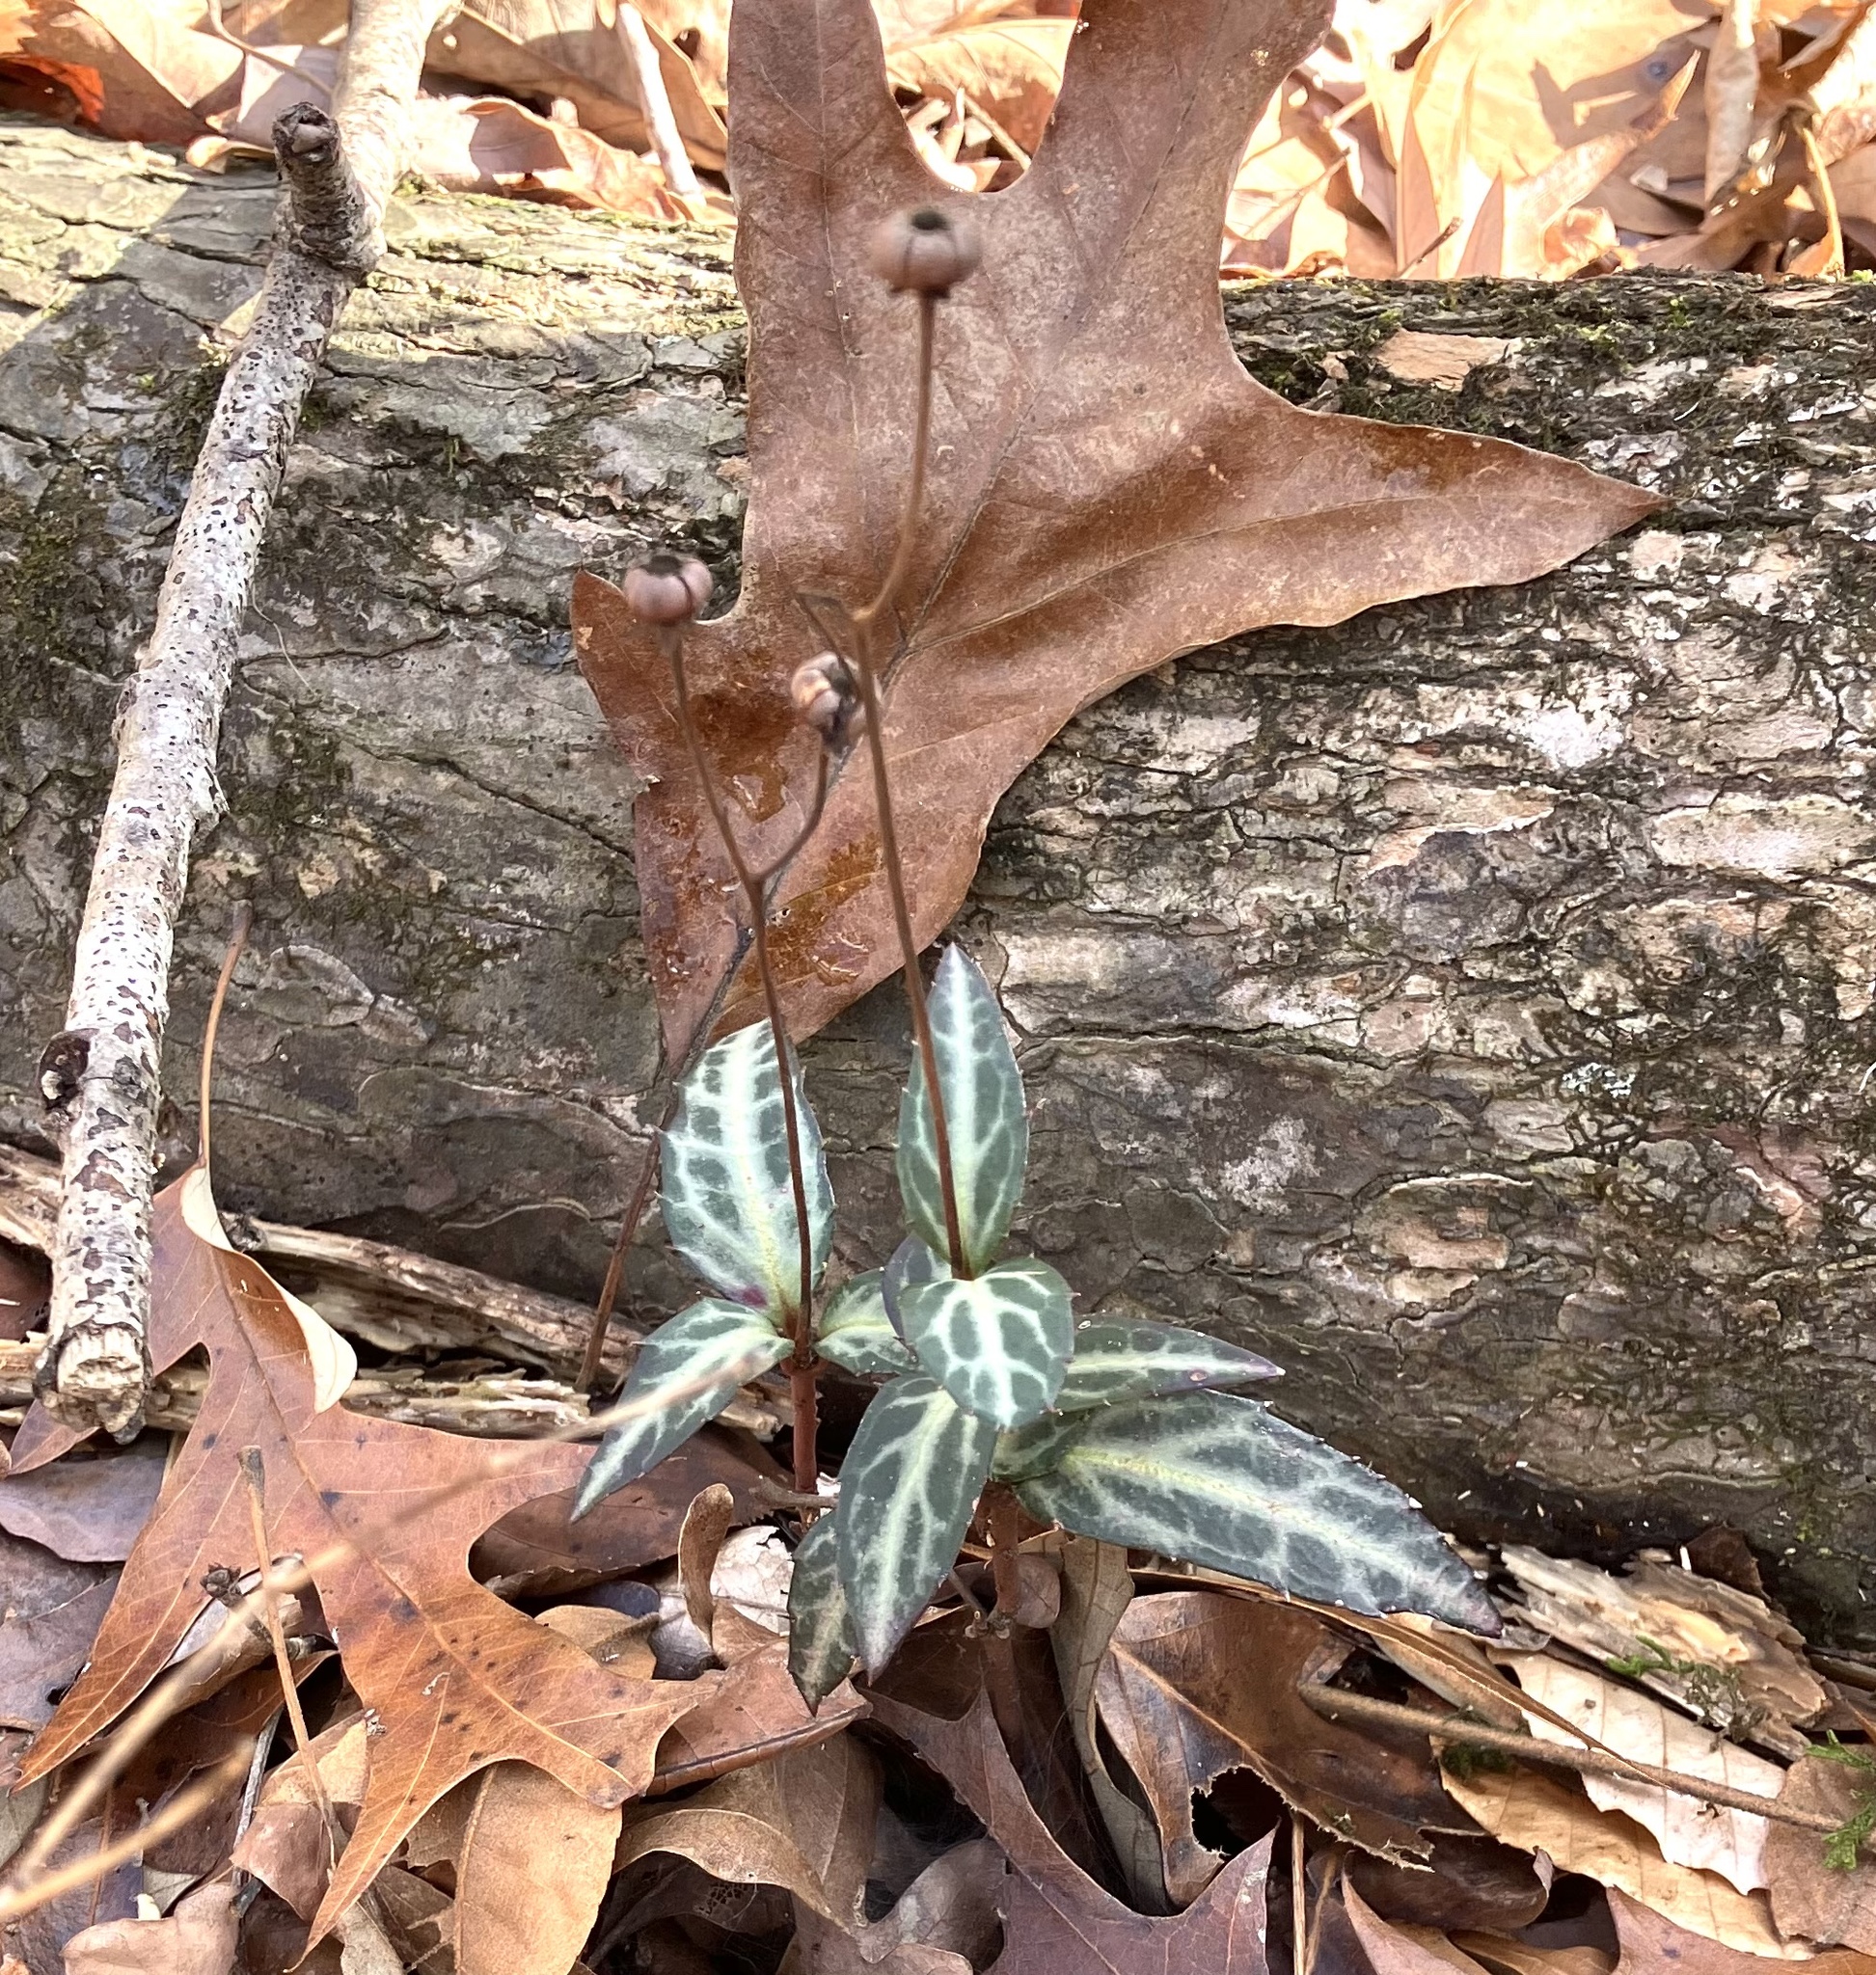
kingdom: Plantae
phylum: Tracheophyta
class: Magnoliopsida
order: Ericales
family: Ericaceae
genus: Chimaphila
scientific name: Chimaphila maculata
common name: Spotted pipsissewa
